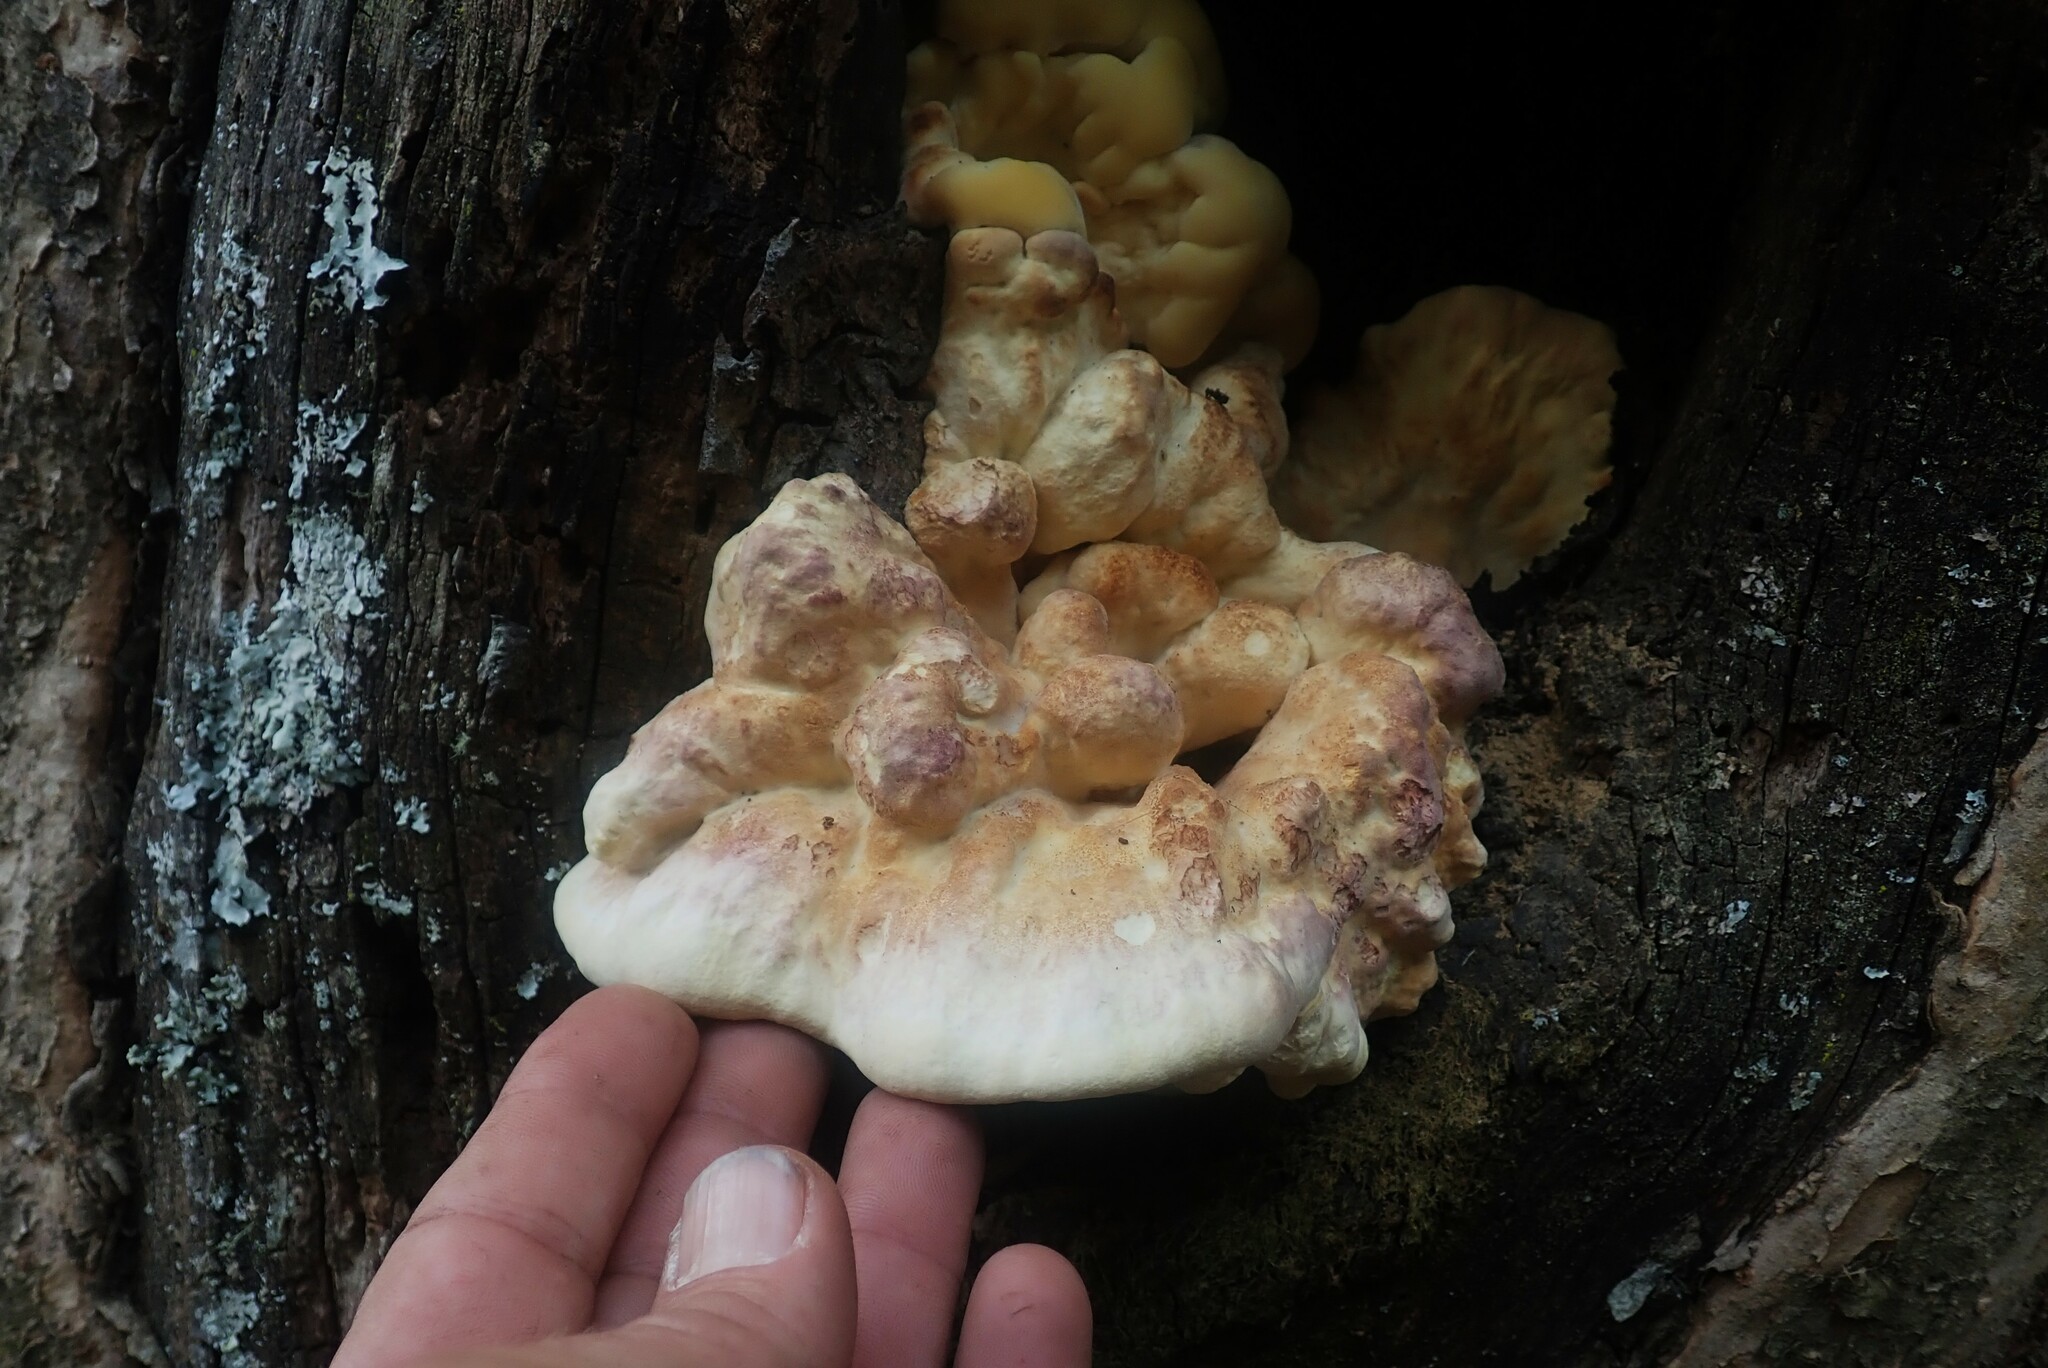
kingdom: Fungi
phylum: Basidiomycota
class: Agaricomycetes
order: Polyporales
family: Laetiporaceae
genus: Laetiporus
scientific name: Laetiporus sulphureus
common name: Chicken of the woods
